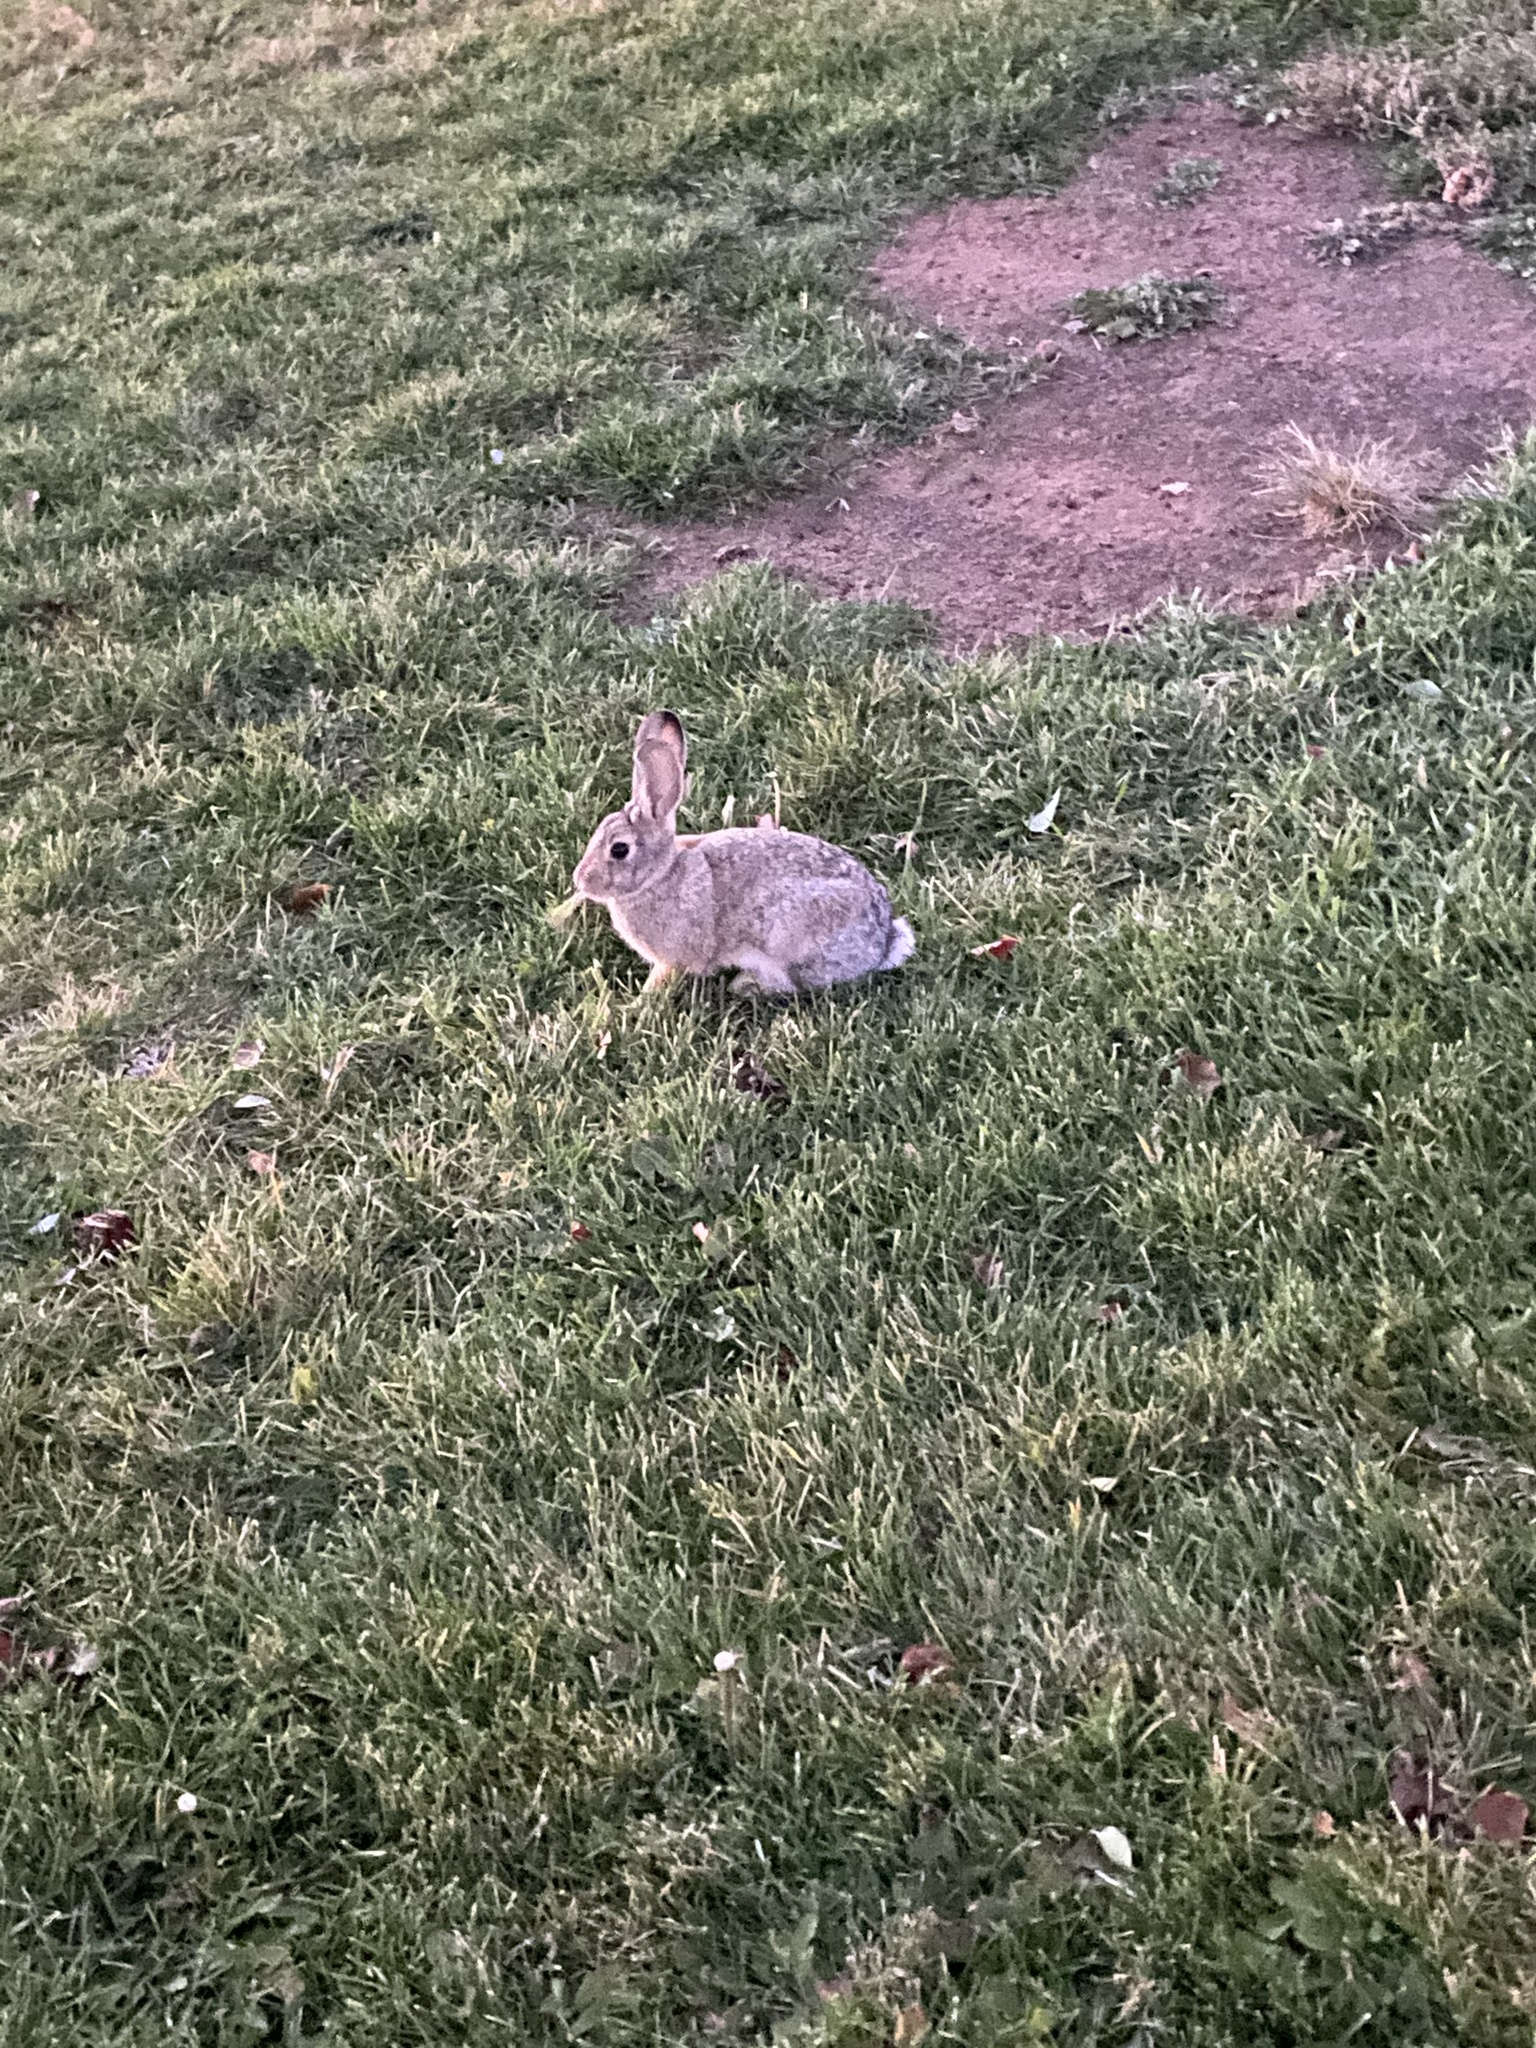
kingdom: Animalia
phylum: Chordata
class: Mammalia
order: Lagomorpha
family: Leporidae
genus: Sylvilagus
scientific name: Sylvilagus audubonii
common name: Desert cottontail
